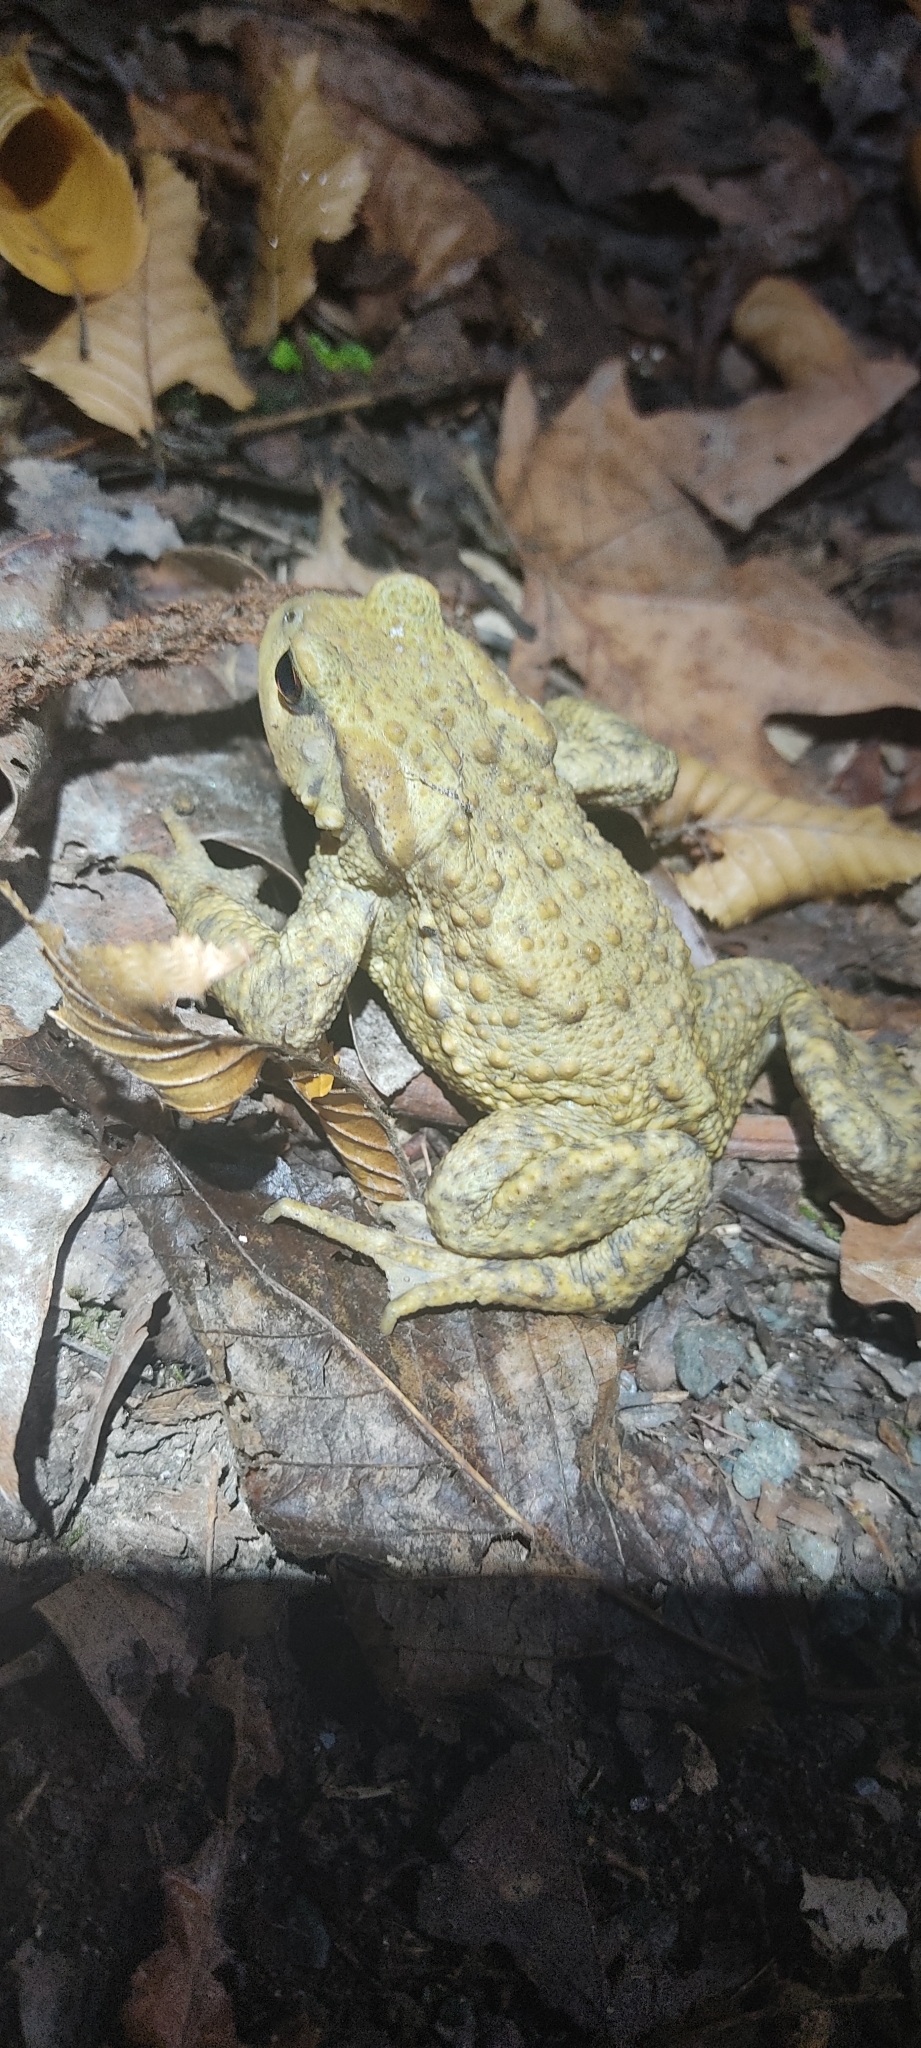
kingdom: Animalia
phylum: Chordata
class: Amphibia
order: Anura
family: Bufonidae
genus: Bufo
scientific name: Bufo spinosus
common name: Western common toad
